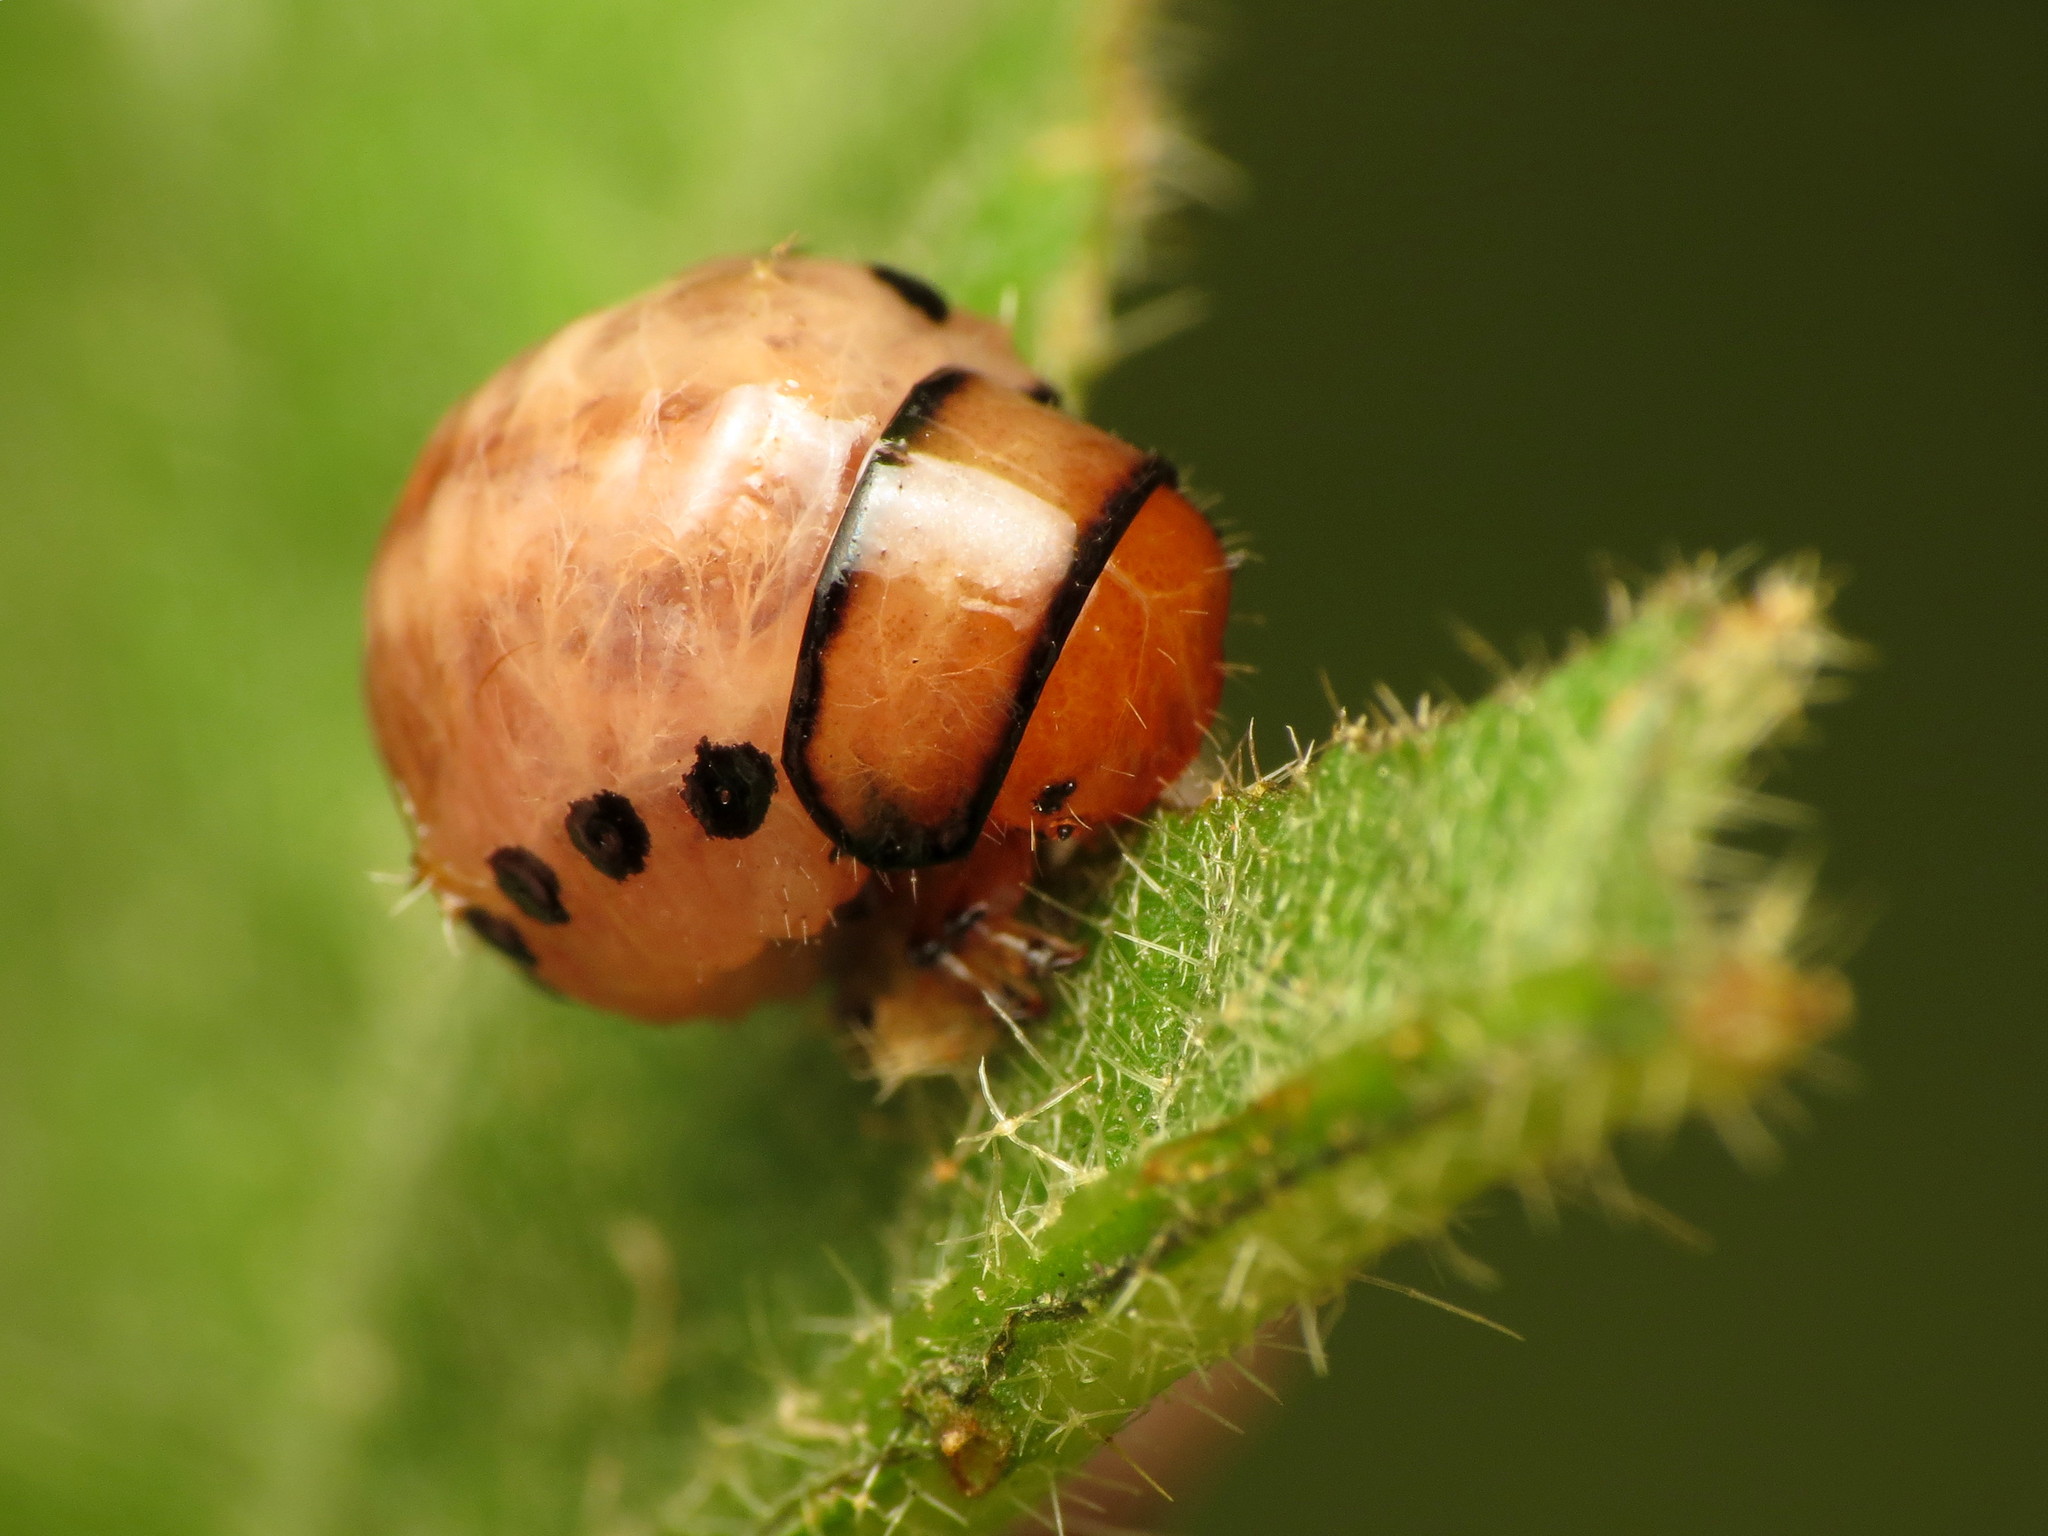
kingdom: Animalia
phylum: Arthropoda
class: Insecta
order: Coleoptera
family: Chrysomelidae
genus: Leptinotarsa
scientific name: Leptinotarsa juncta
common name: False potato beetle
